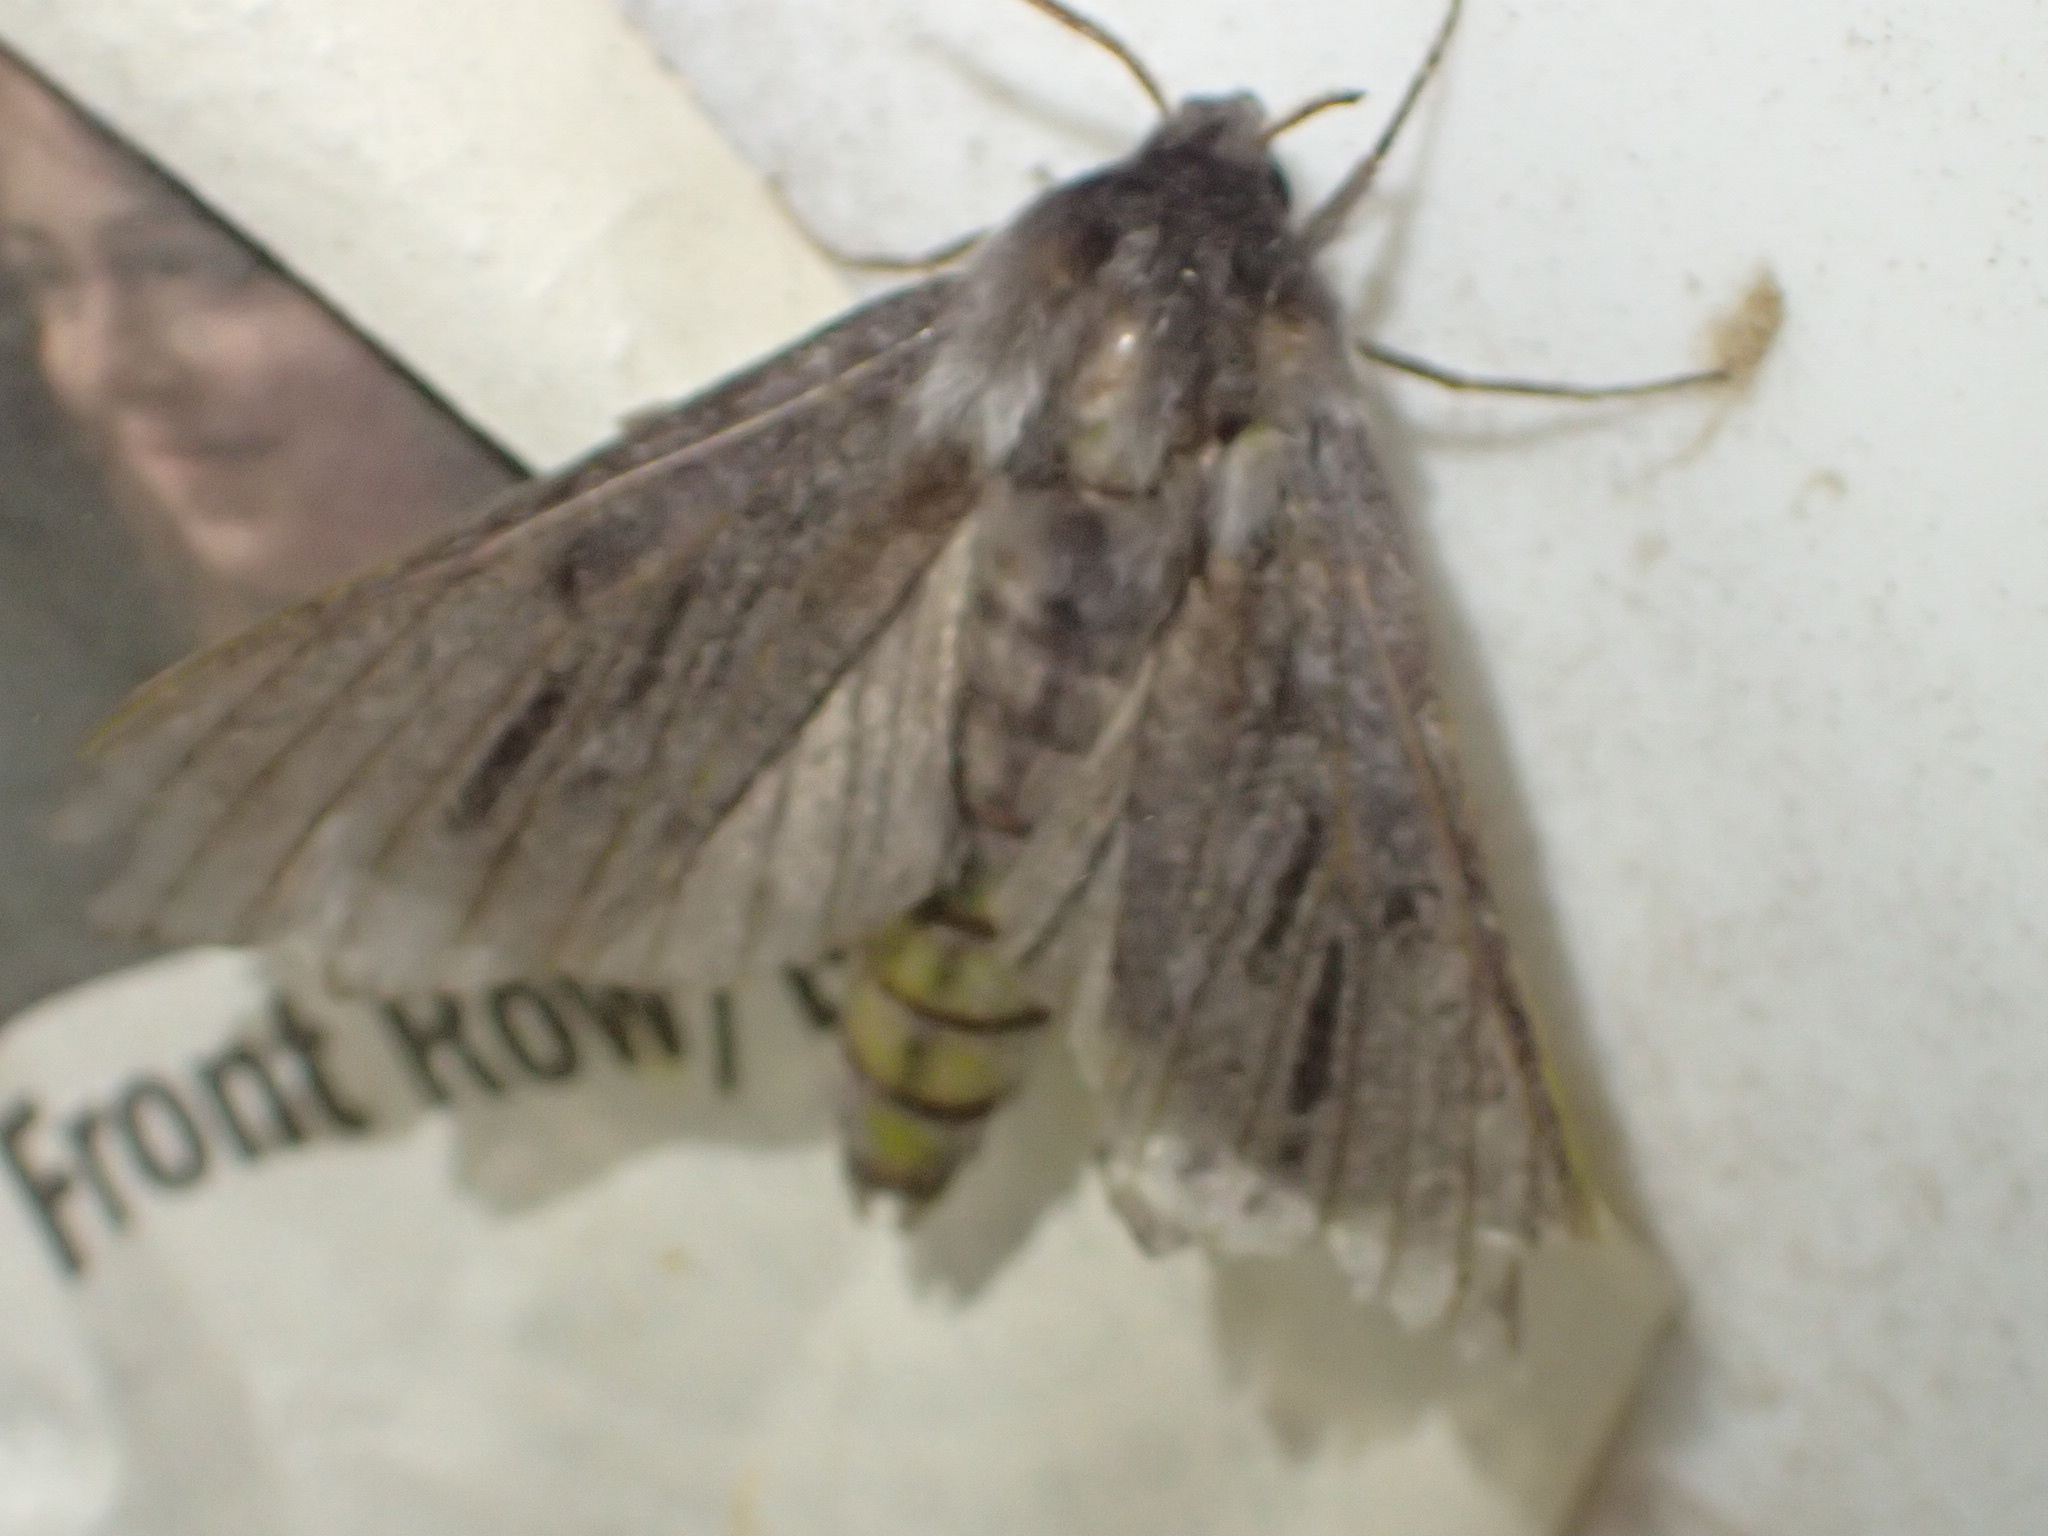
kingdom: Animalia
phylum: Arthropoda
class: Insecta
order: Lepidoptera
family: Sphingidae
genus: Lapara
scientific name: Lapara bombycoides
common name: Northern pine sphinx
